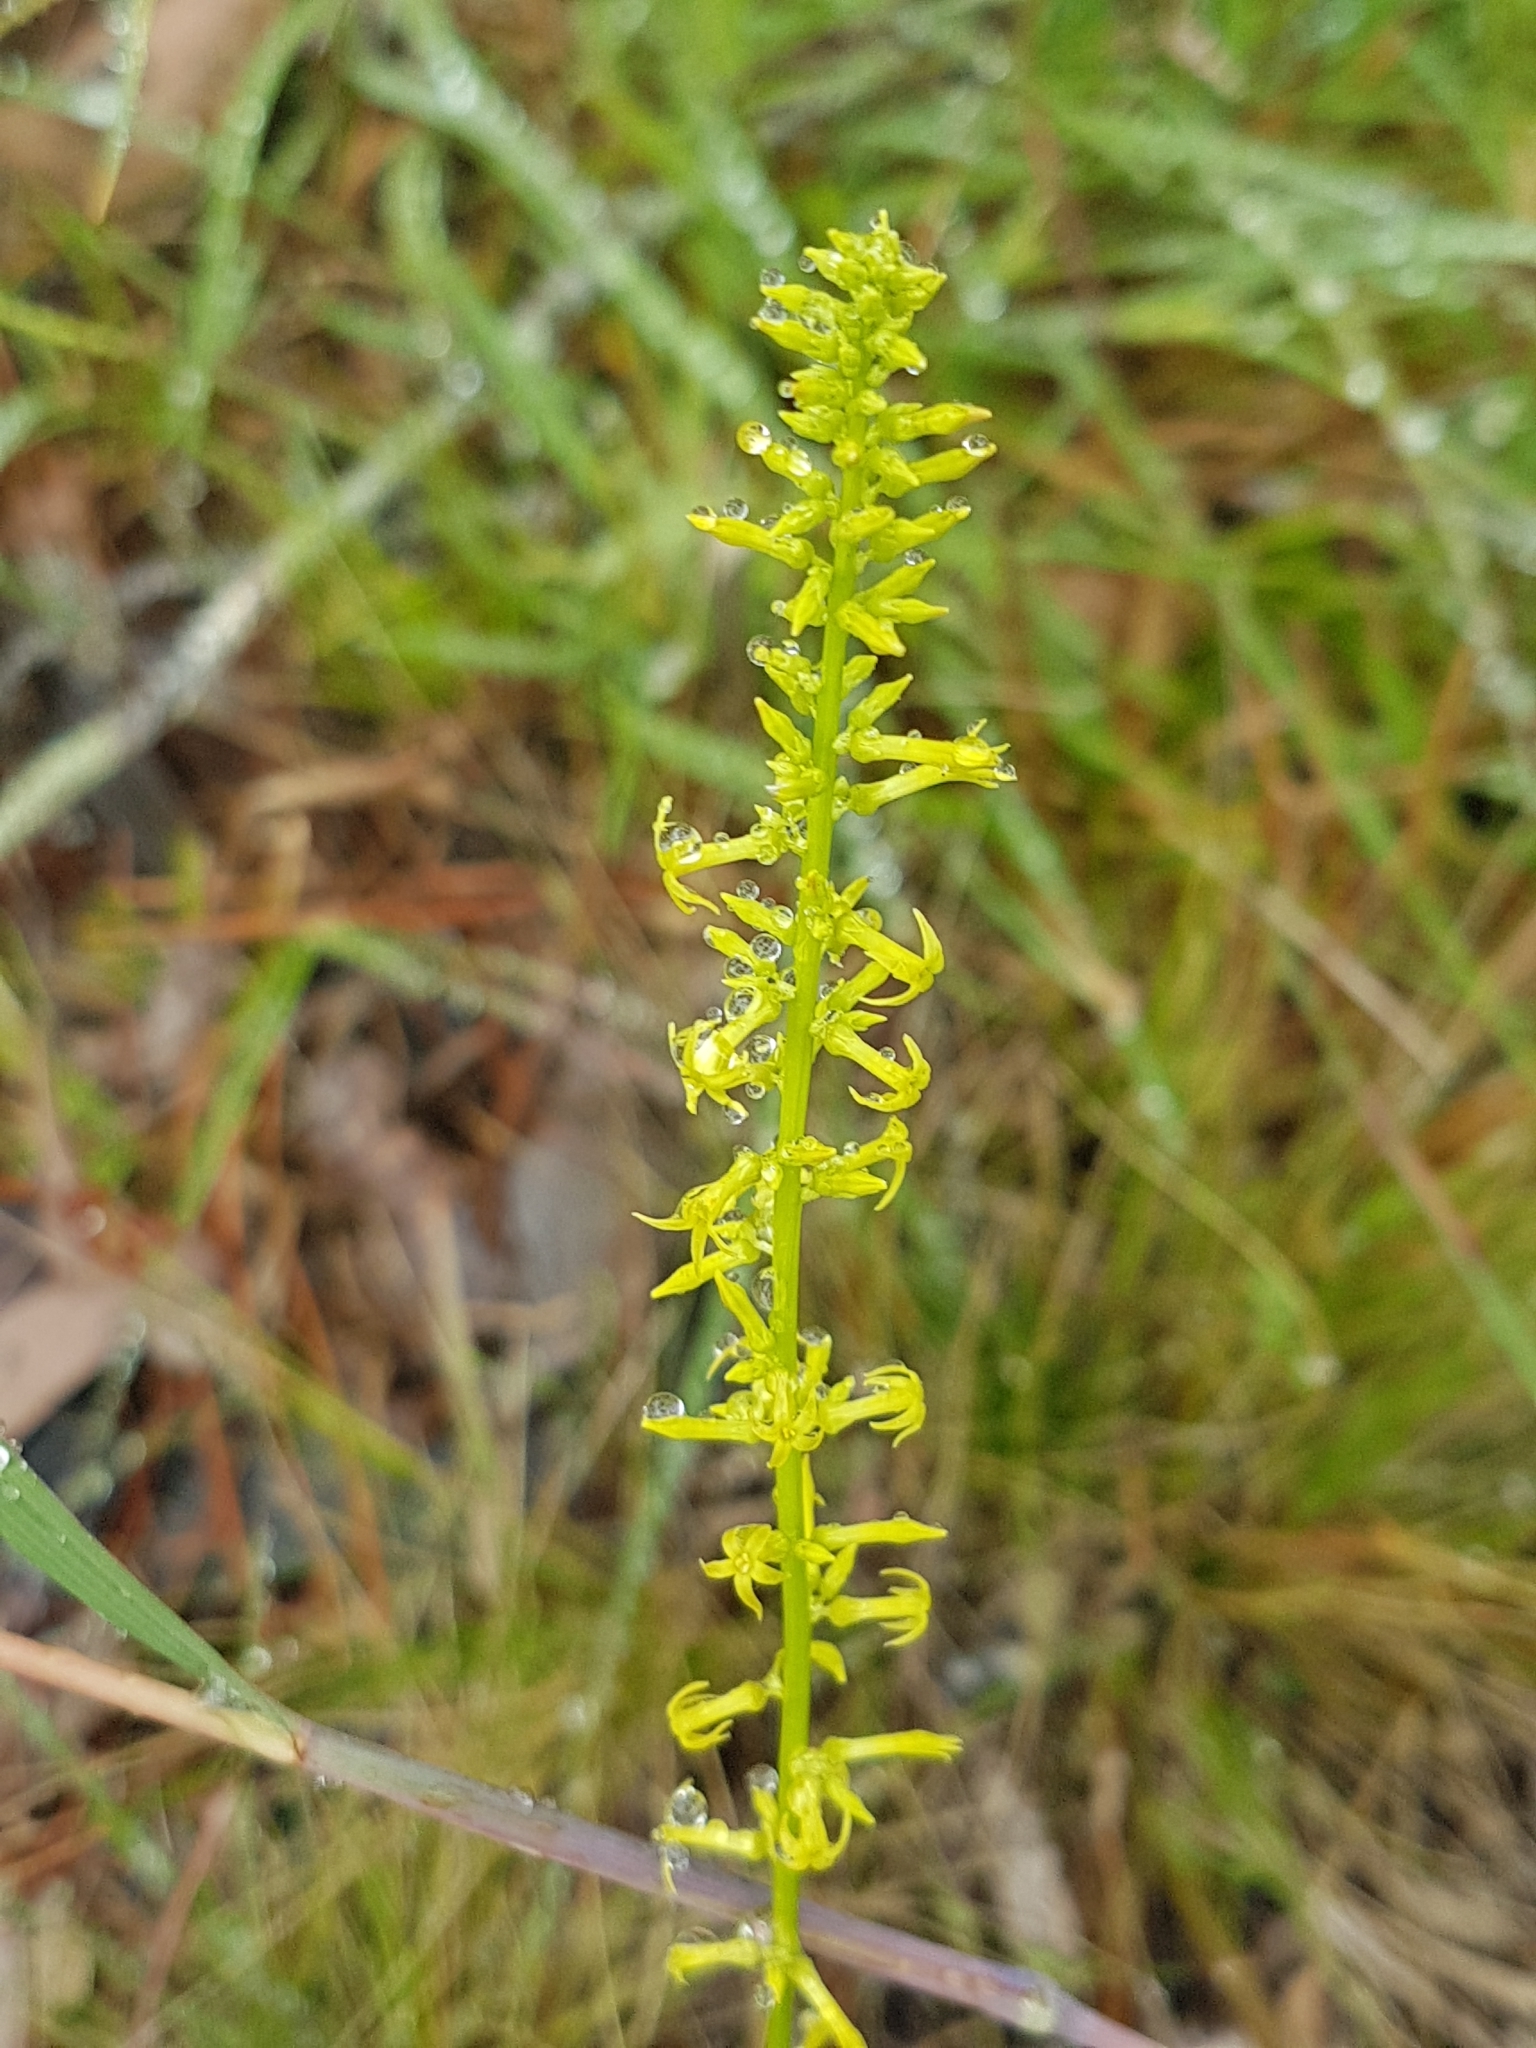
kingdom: Plantae
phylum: Tracheophyta
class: Magnoliopsida
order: Celastrales
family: Celastraceae
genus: Stackhousia
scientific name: Stackhousia viminea
